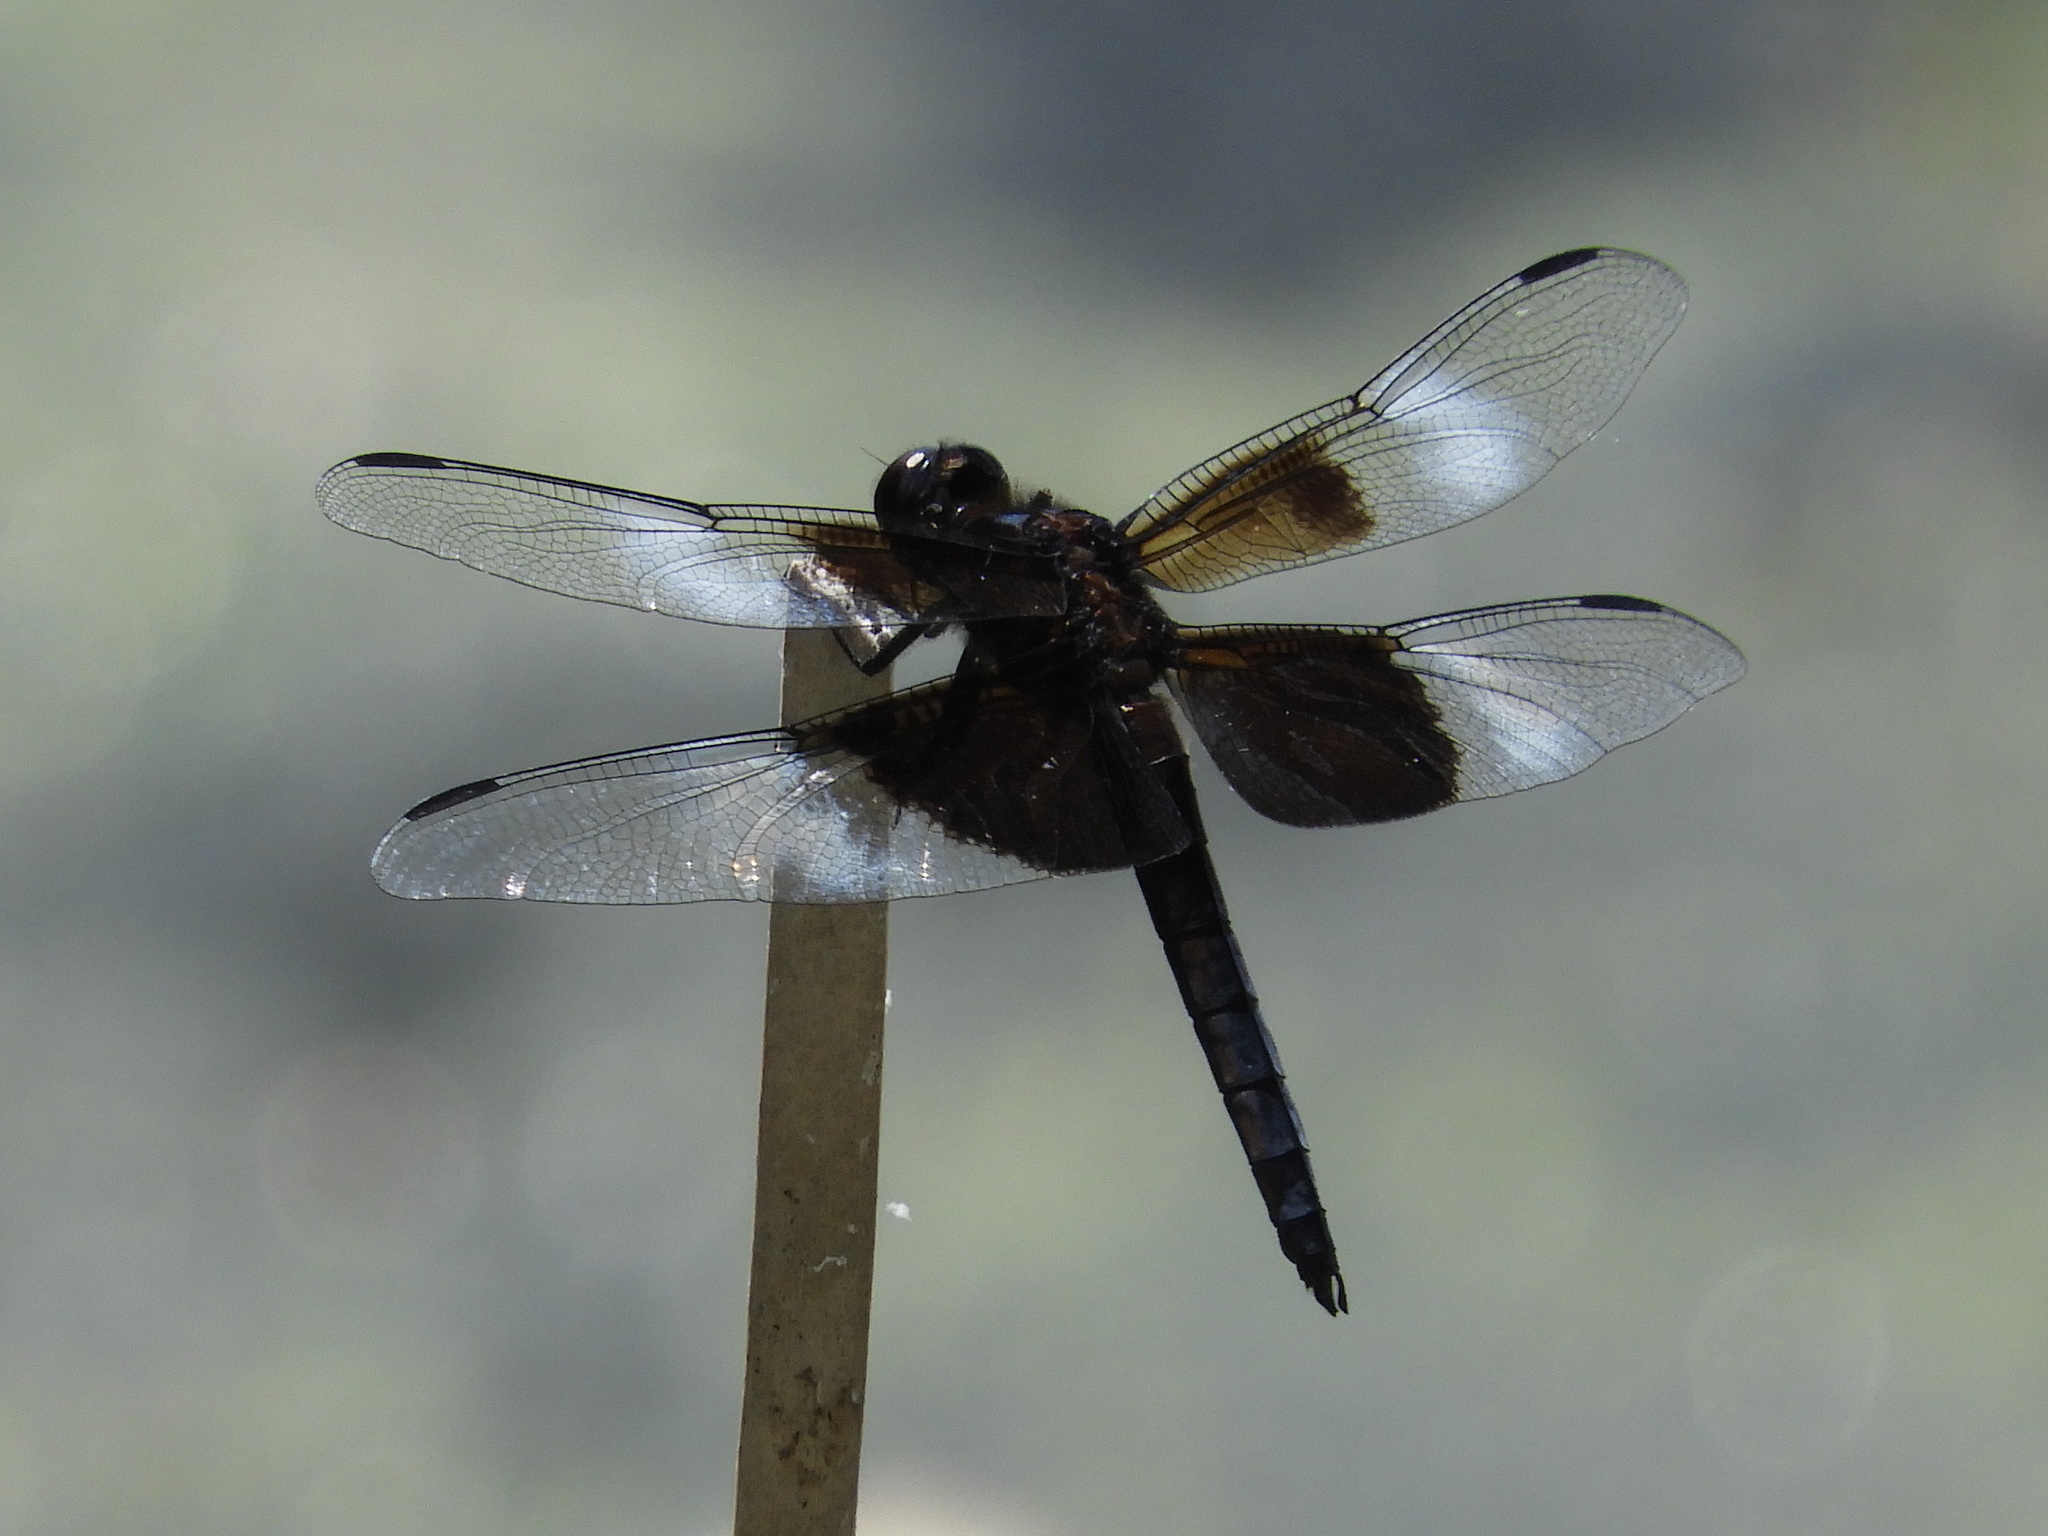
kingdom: Animalia
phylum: Arthropoda
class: Insecta
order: Odonata
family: Libellulidae
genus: Libellula
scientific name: Libellula luctuosa
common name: Widow skimmer
